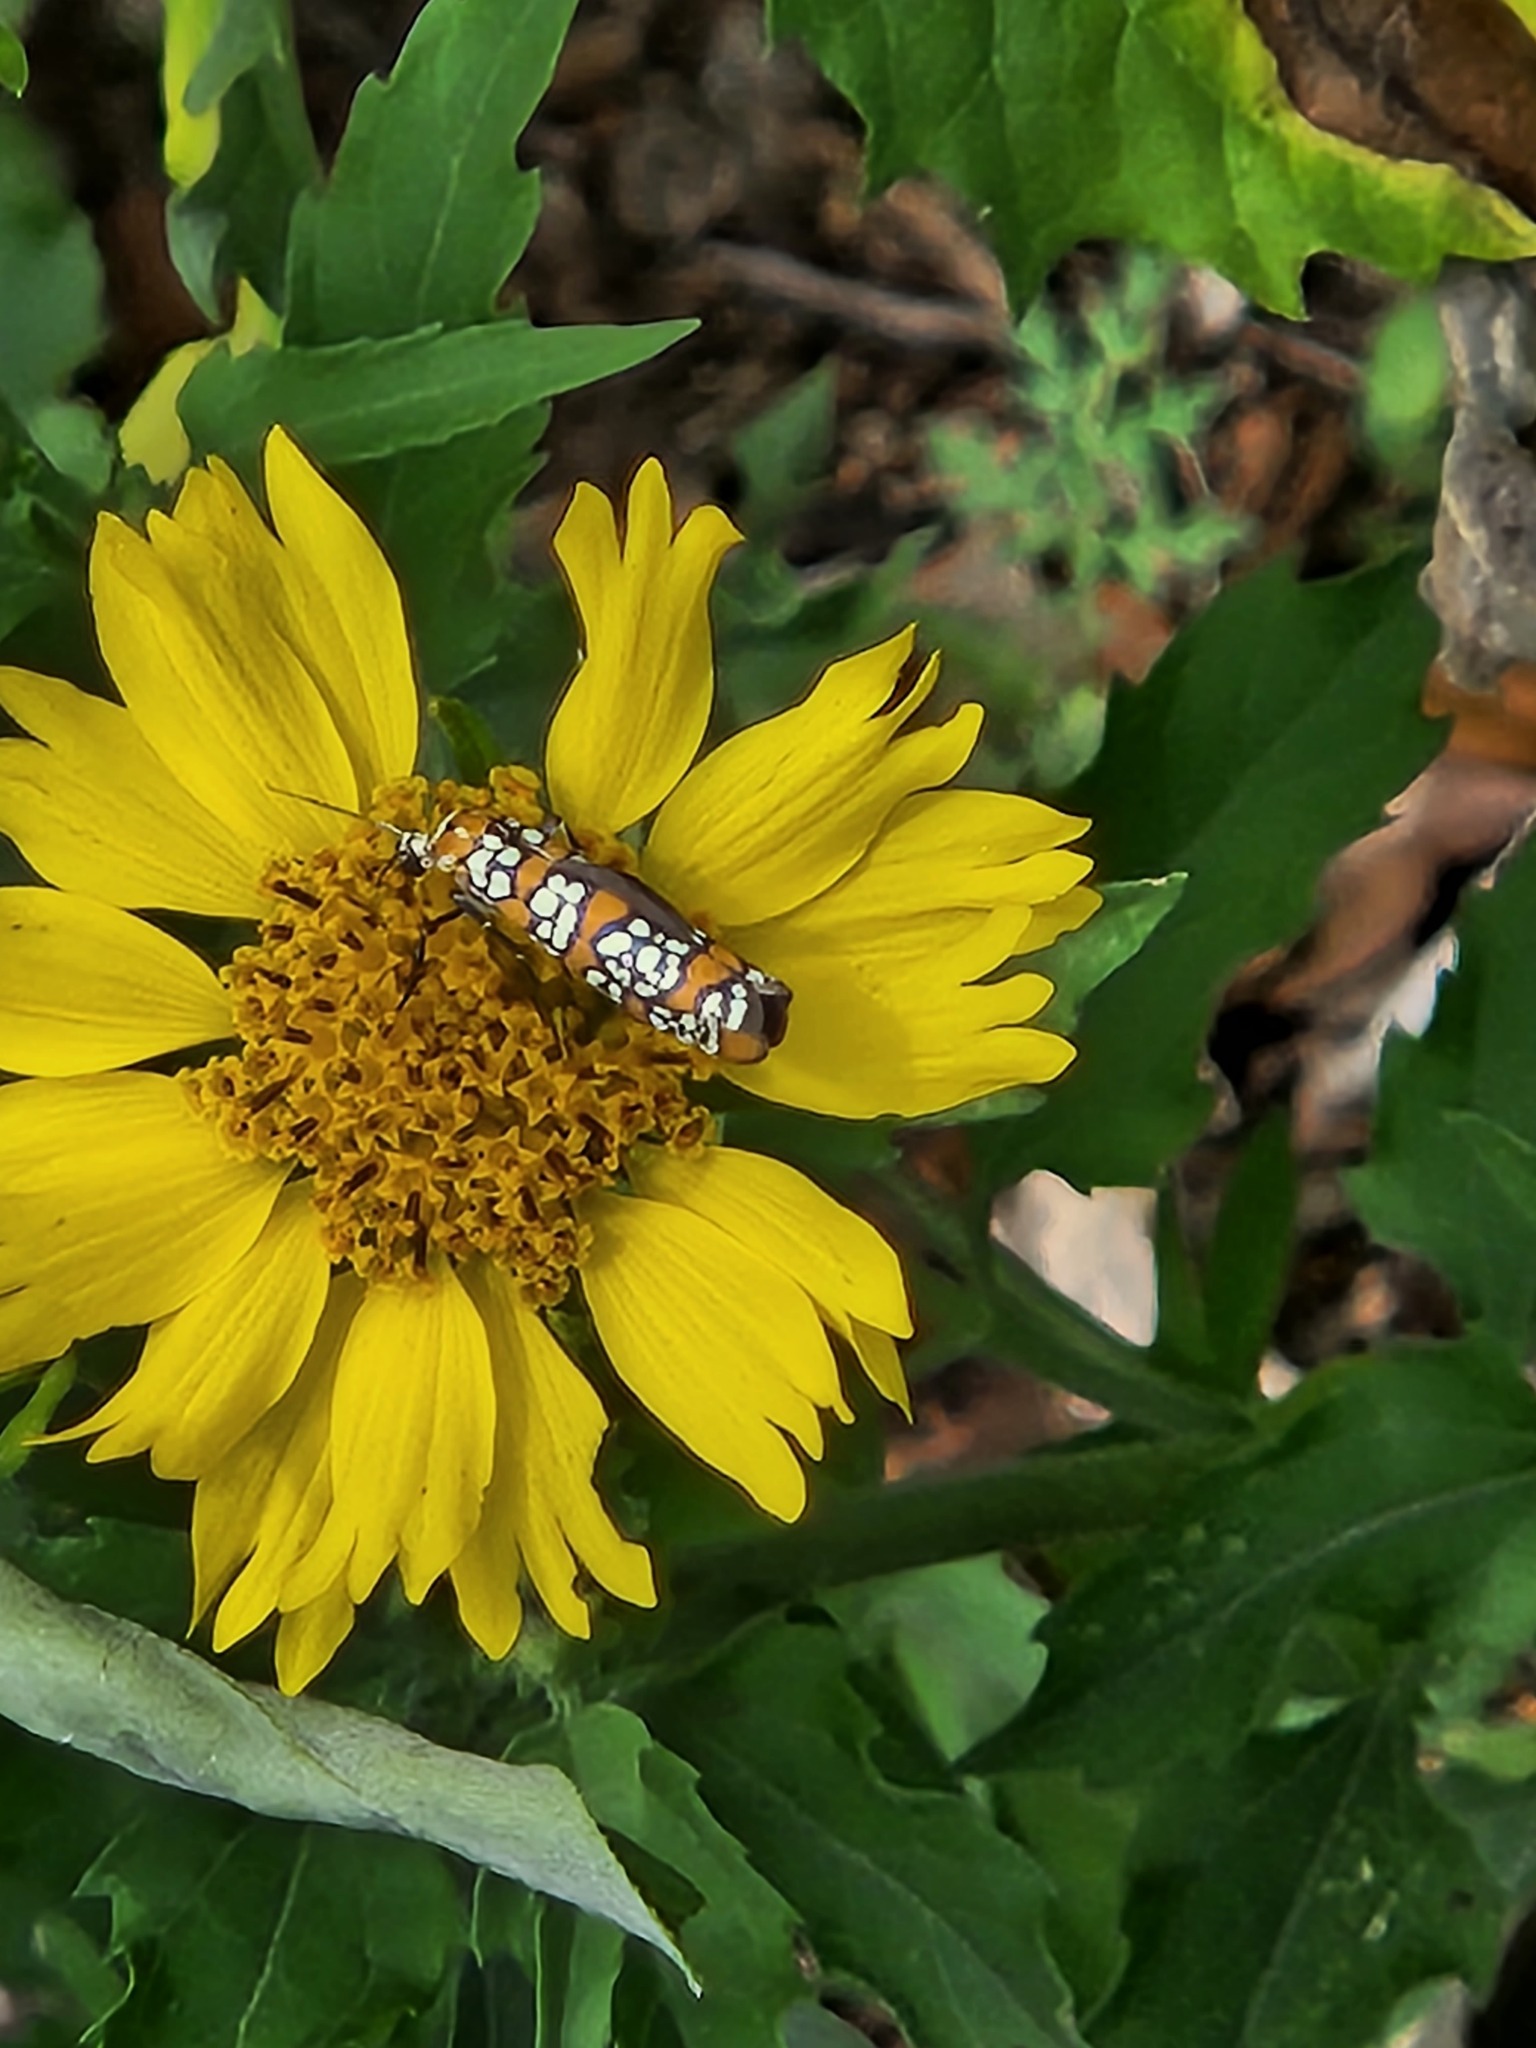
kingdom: Animalia
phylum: Arthropoda
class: Insecta
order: Lepidoptera
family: Attevidae
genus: Atteva
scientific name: Atteva punctella
